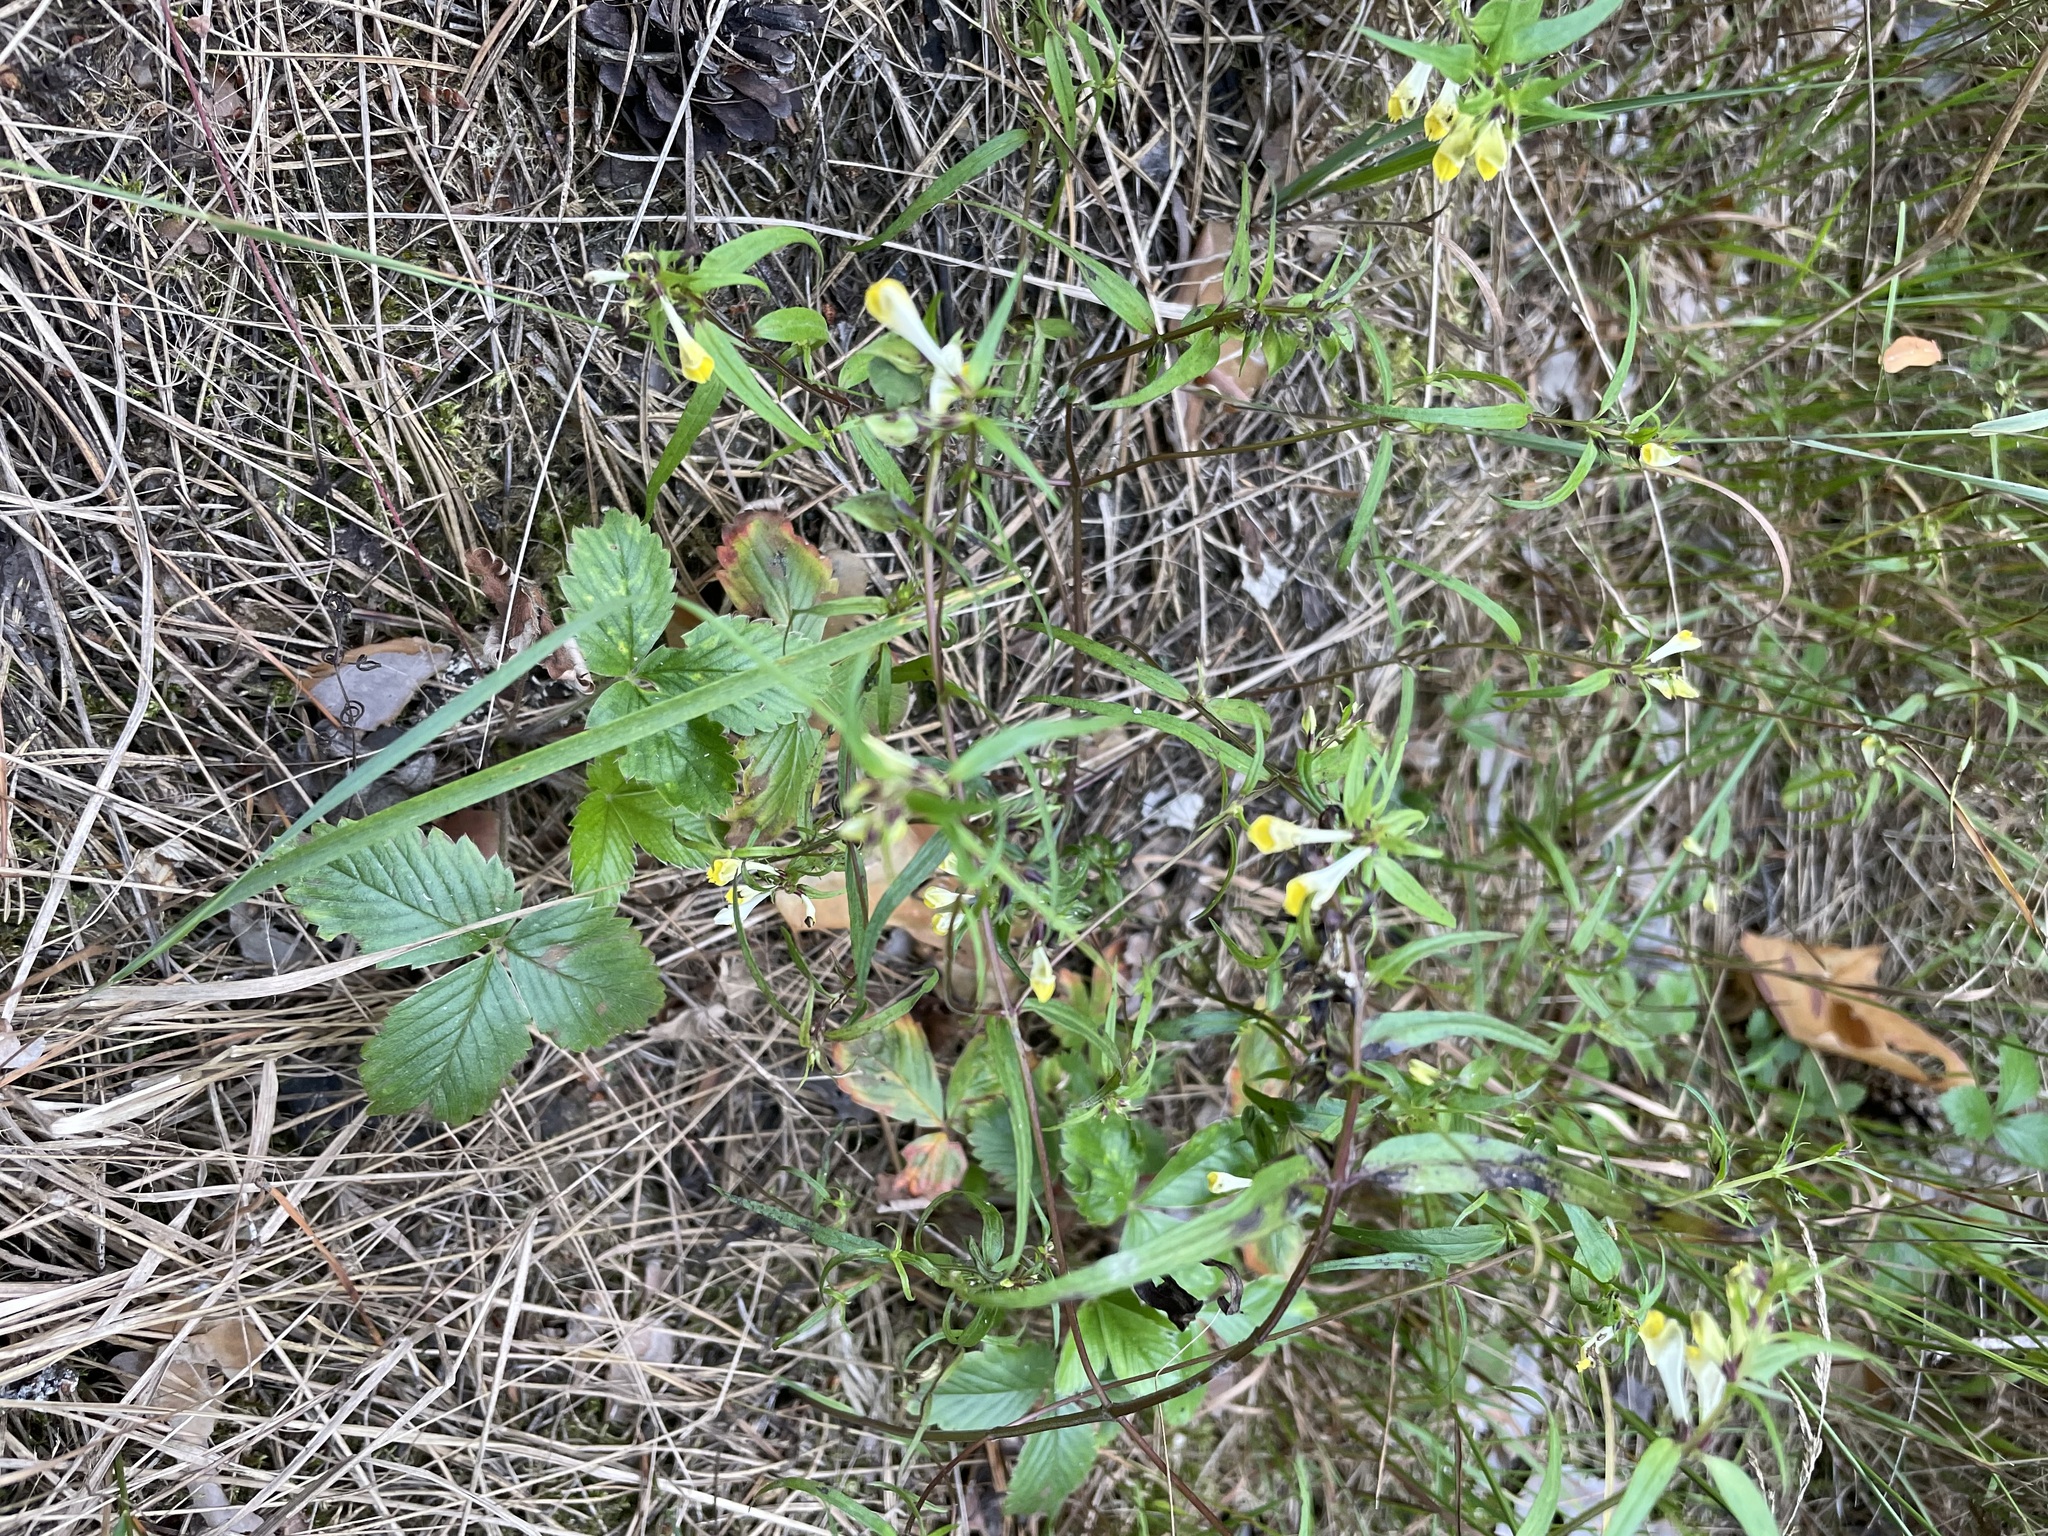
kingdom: Plantae
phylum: Tracheophyta
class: Magnoliopsida
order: Lamiales
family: Orobanchaceae
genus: Melampyrum
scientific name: Melampyrum pratense
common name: Common cow-wheat
